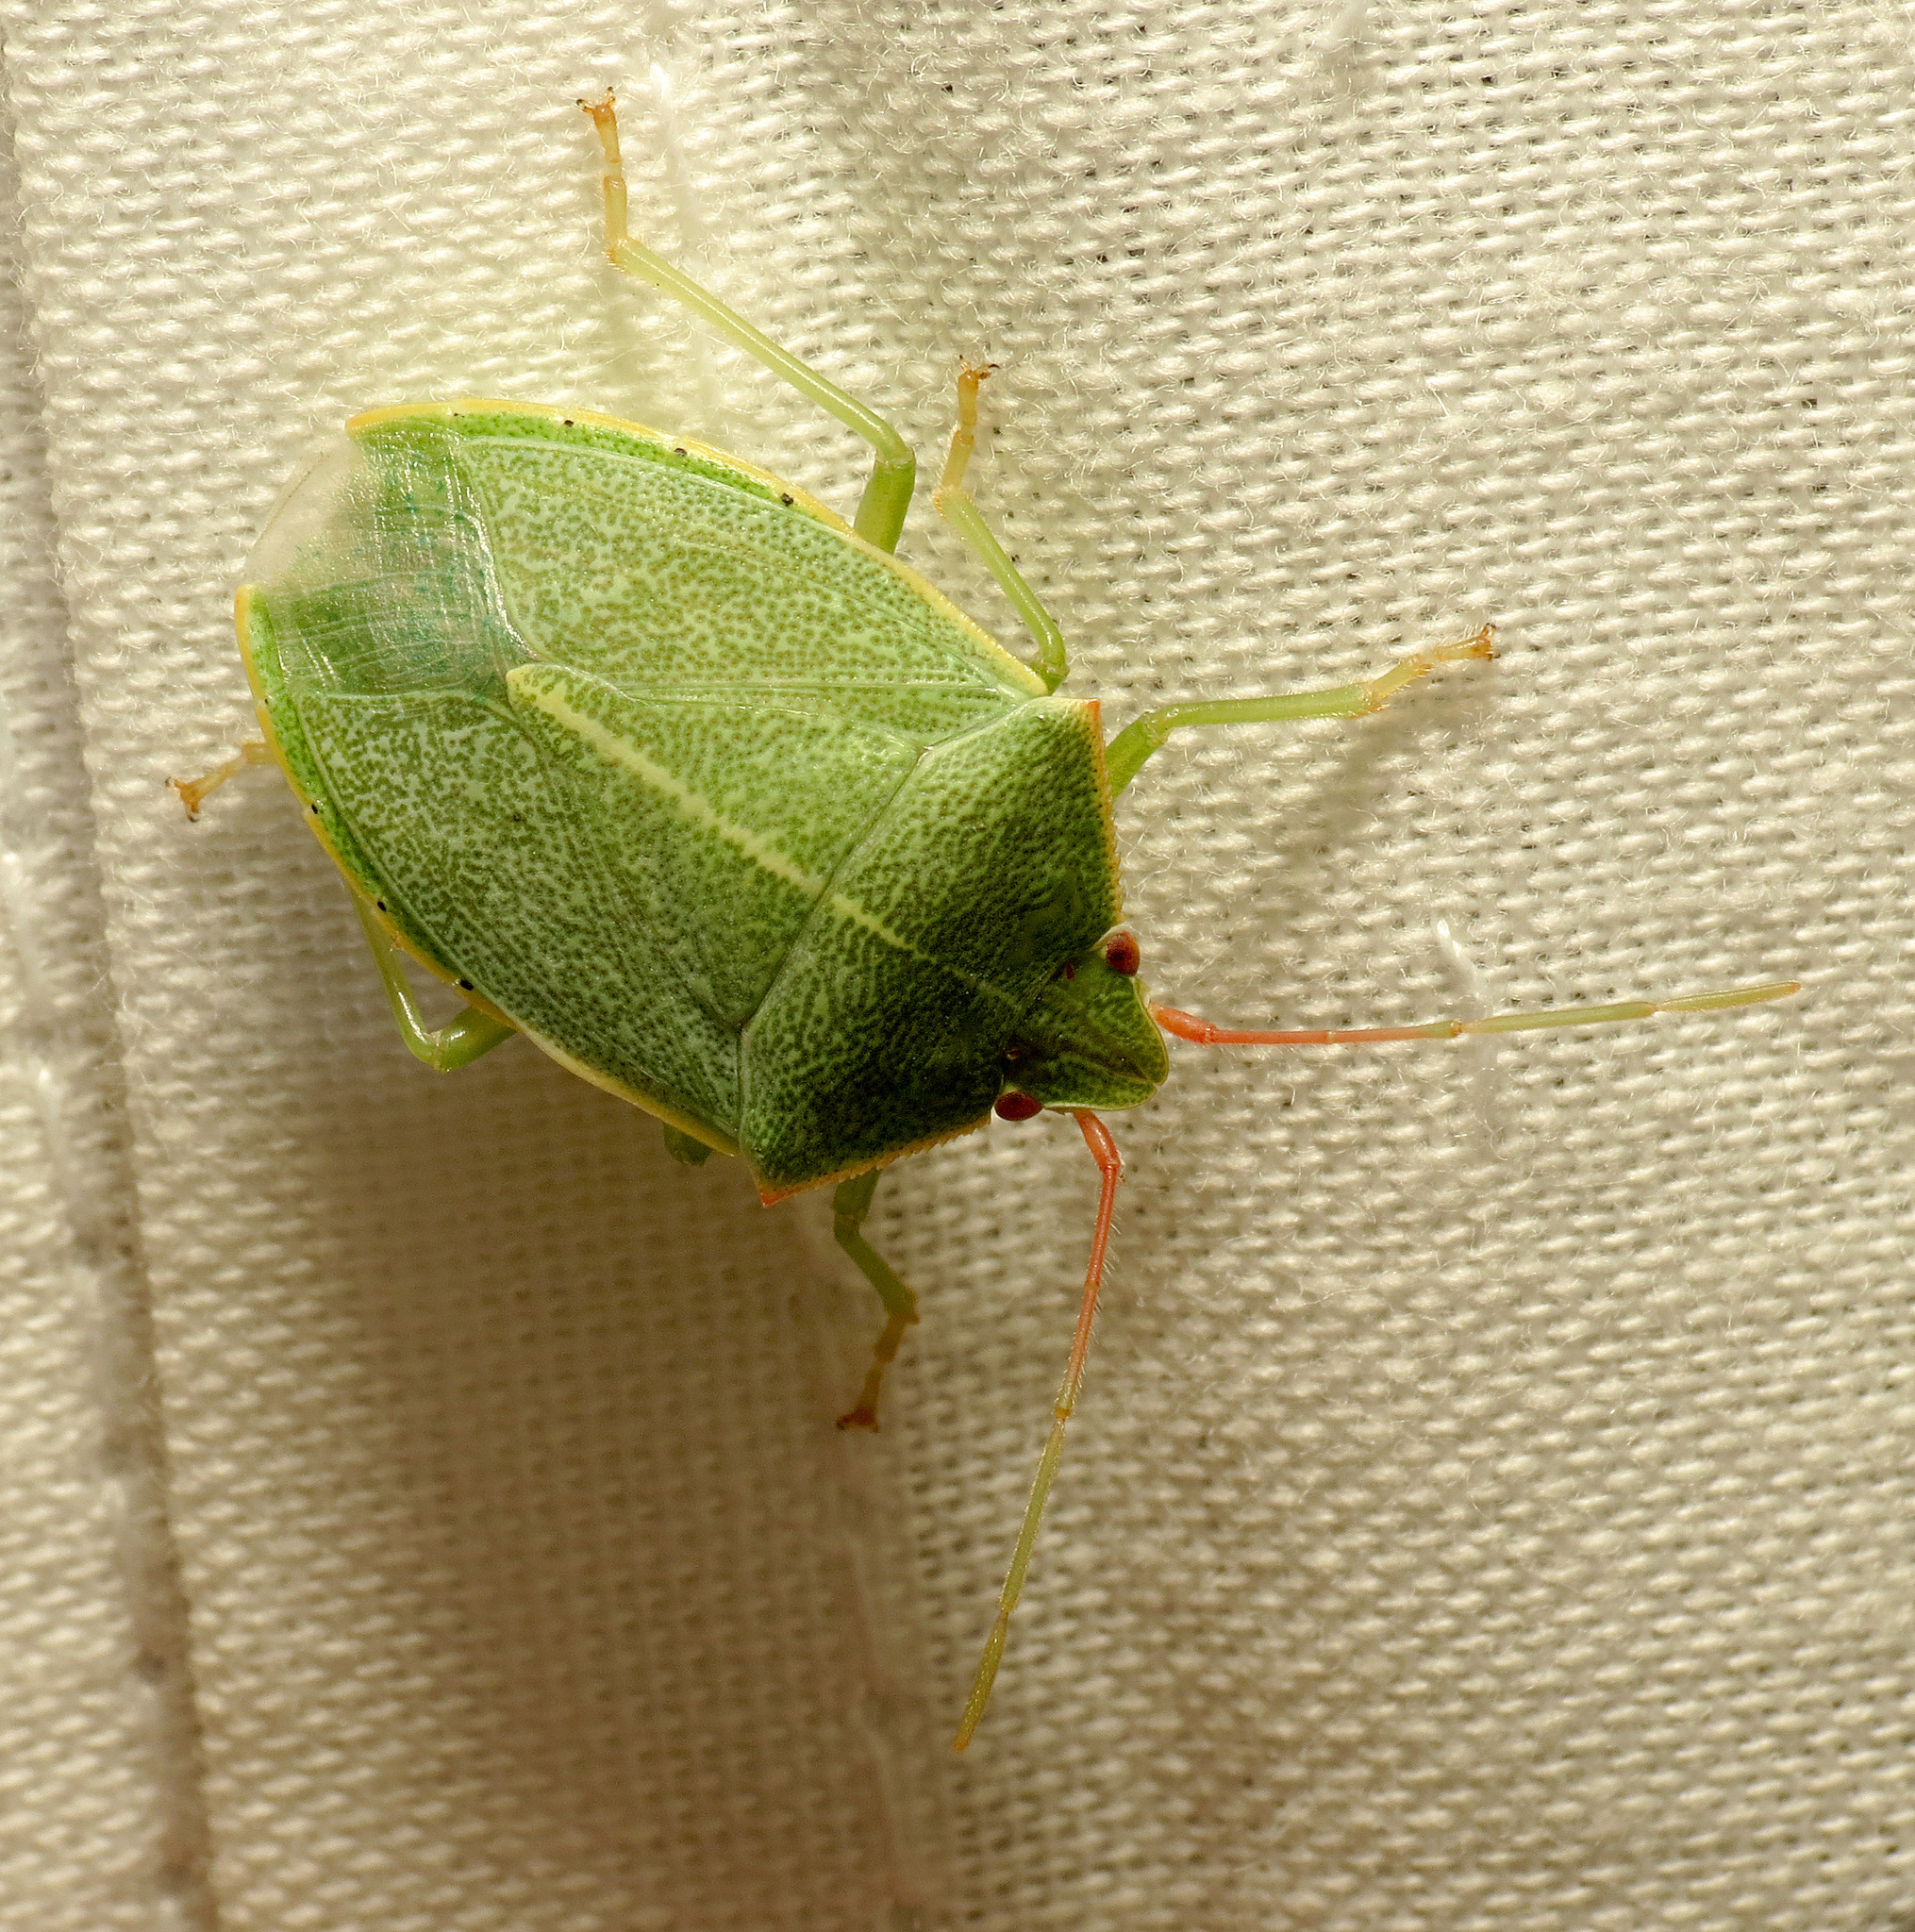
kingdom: Animalia
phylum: Arthropoda
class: Insecta
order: Hemiptera
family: Pentatomidae
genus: Chlorocoris
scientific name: Chlorocoris hebetatus
